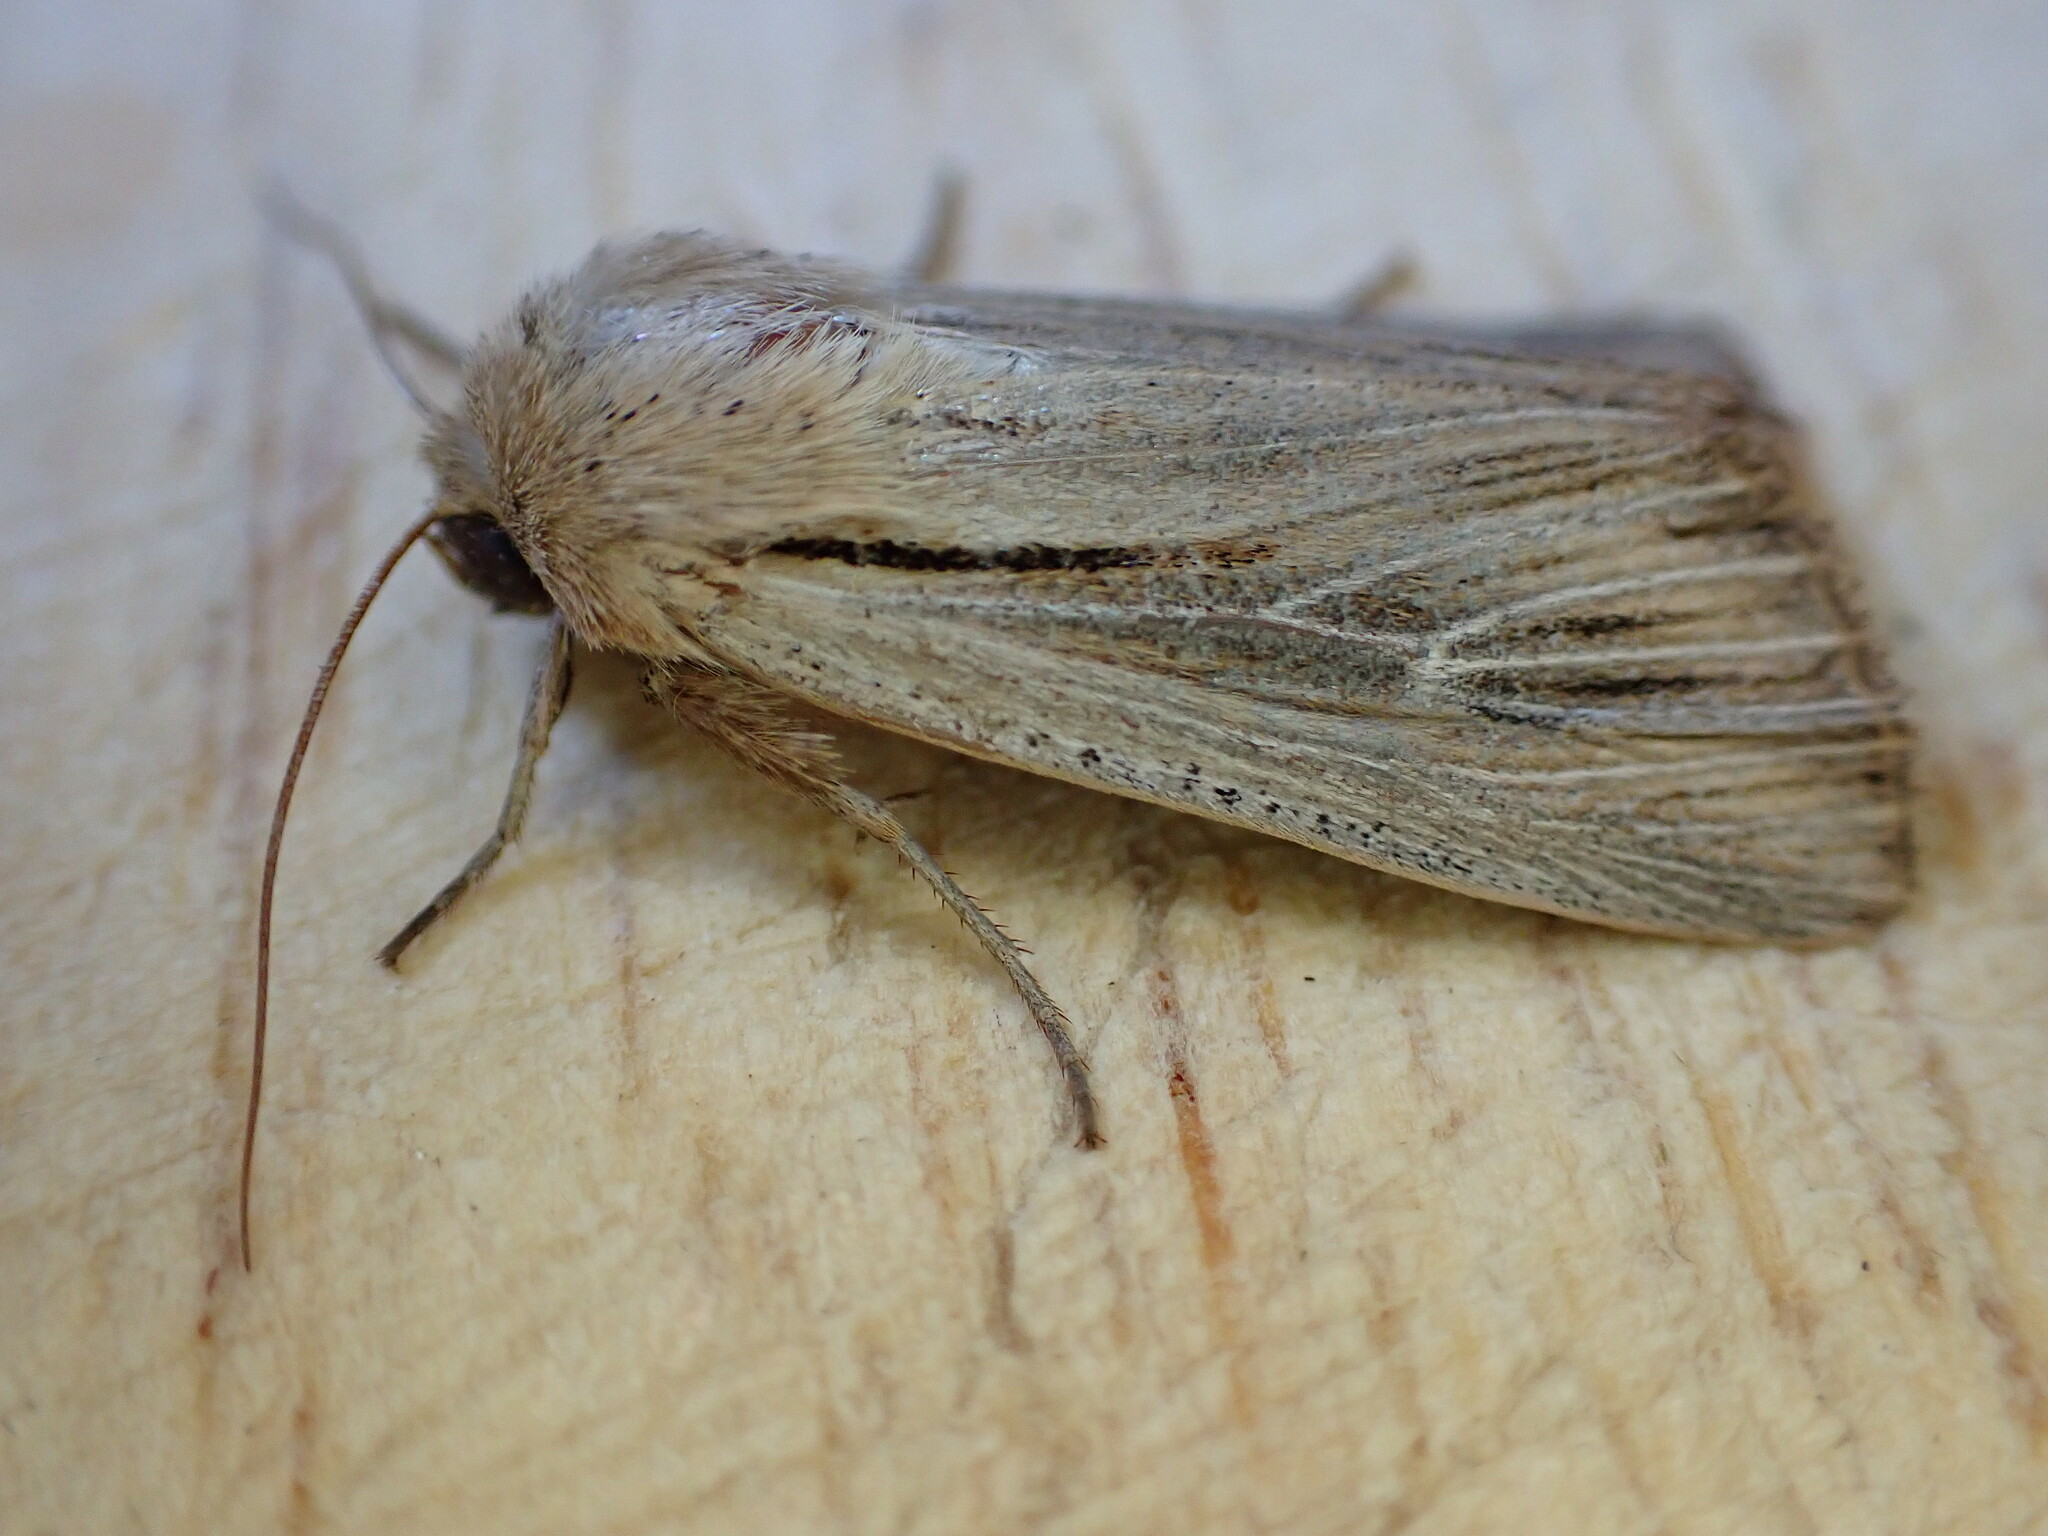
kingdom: Animalia
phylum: Arthropoda
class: Insecta
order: Lepidoptera
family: Noctuidae
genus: Leucania
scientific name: Leucania comma
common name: Shoulder-striped wainscot
